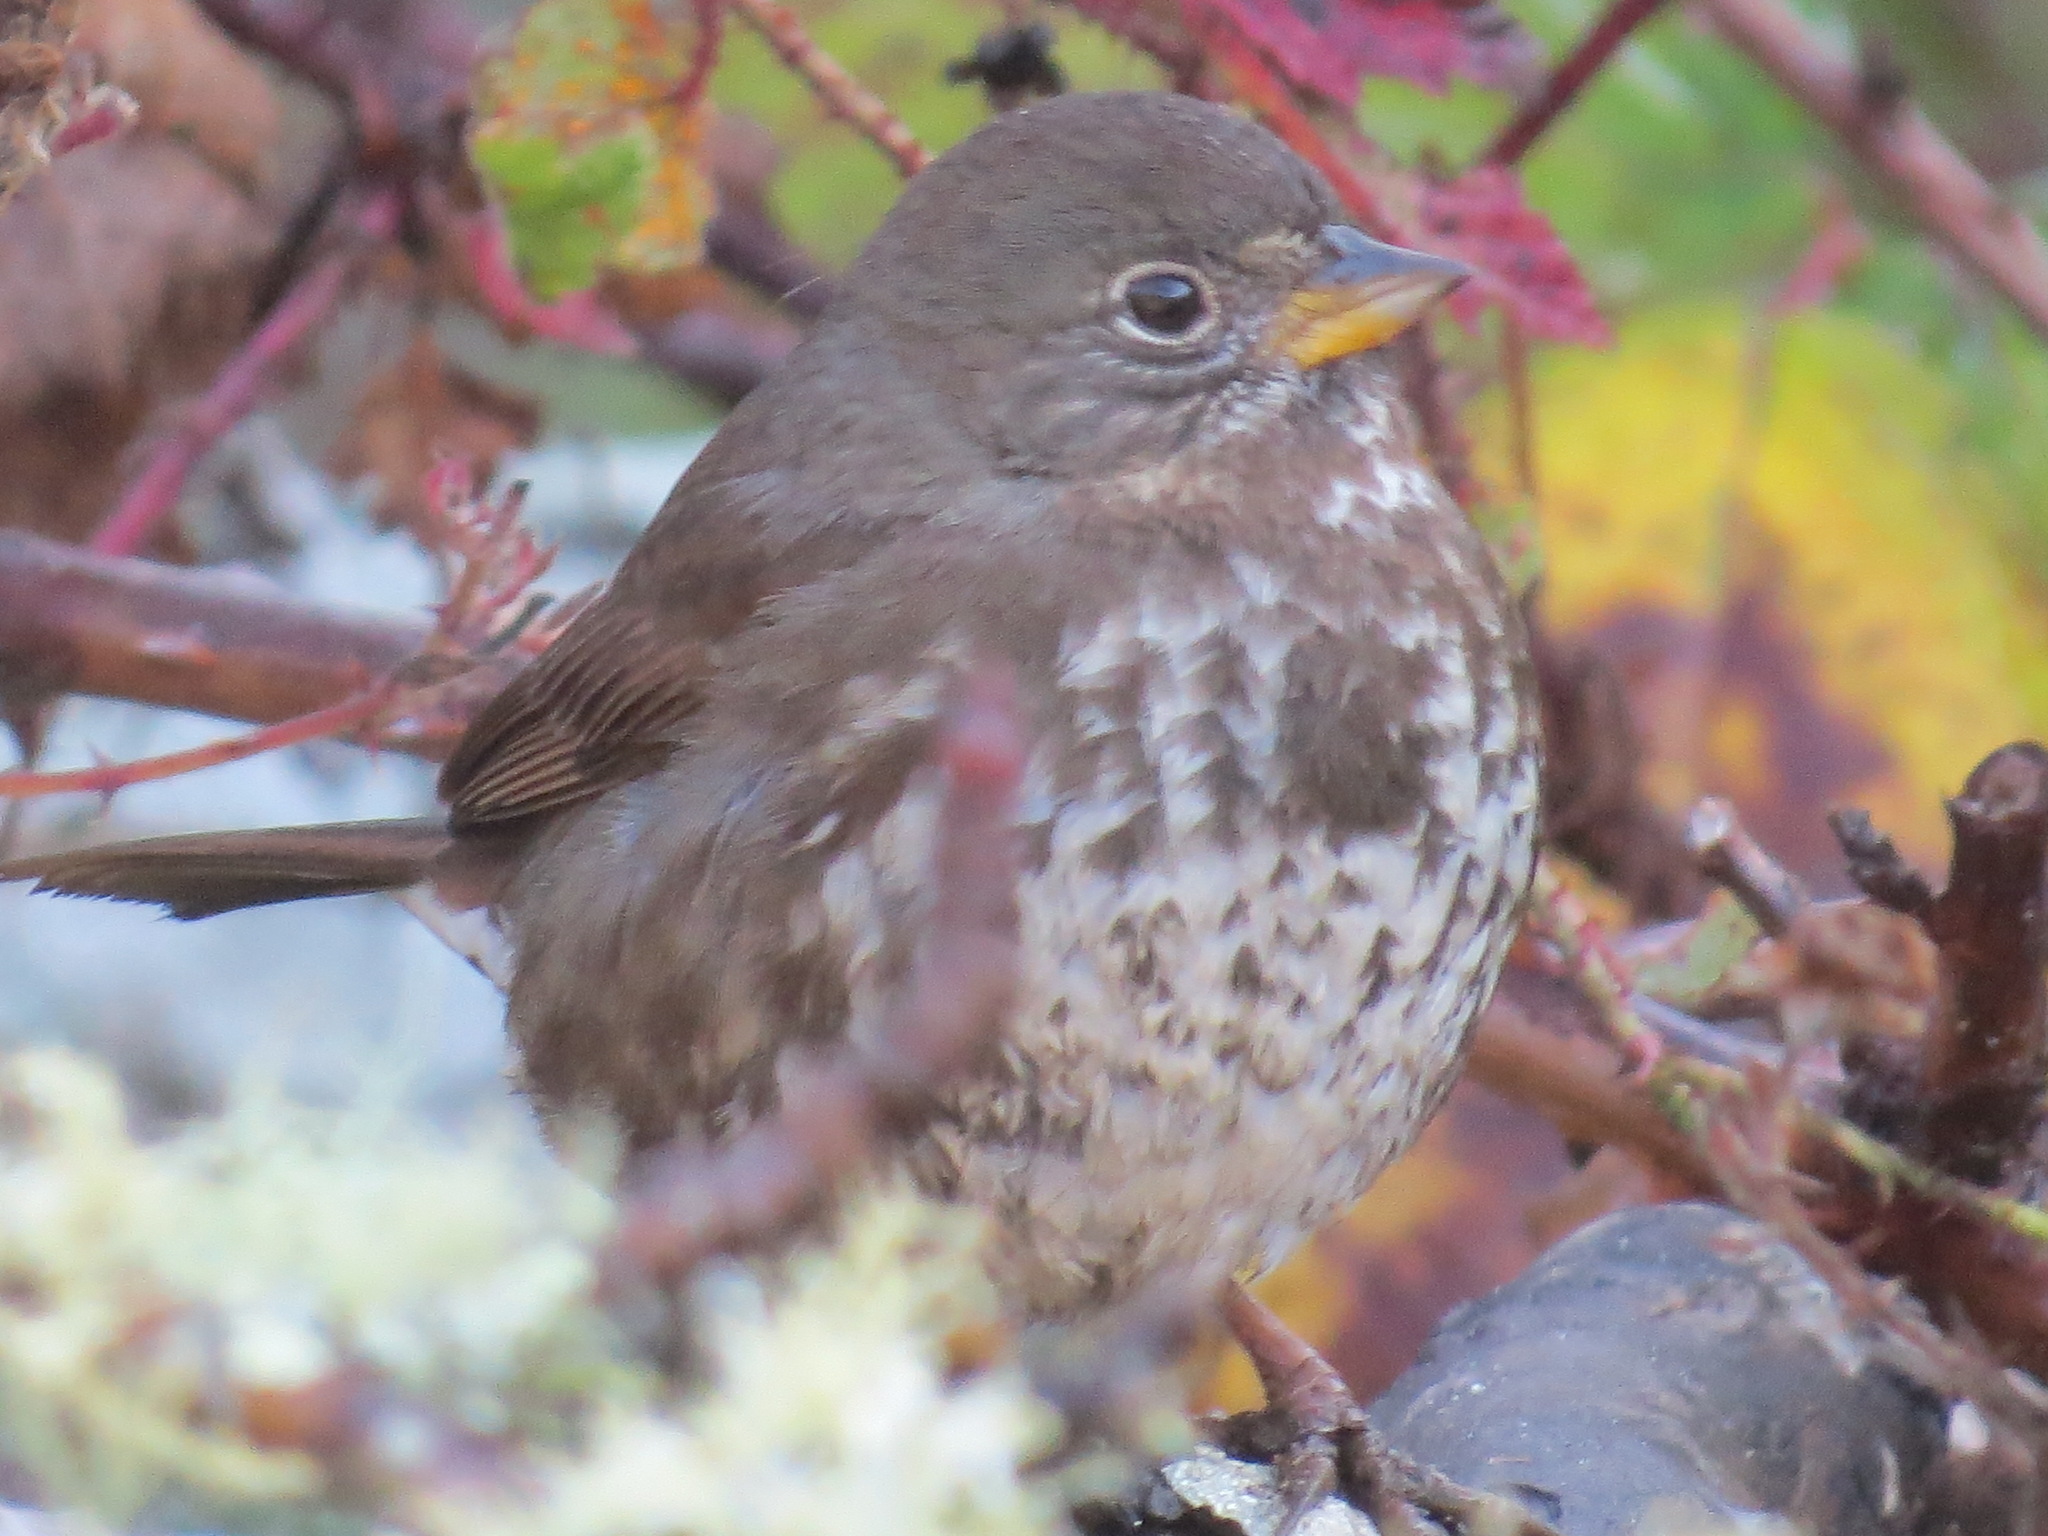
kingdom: Animalia
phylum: Chordata
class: Aves
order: Passeriformes
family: Passerellidae
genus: Passerella
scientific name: Passerella iliaca
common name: Fox sparrow
